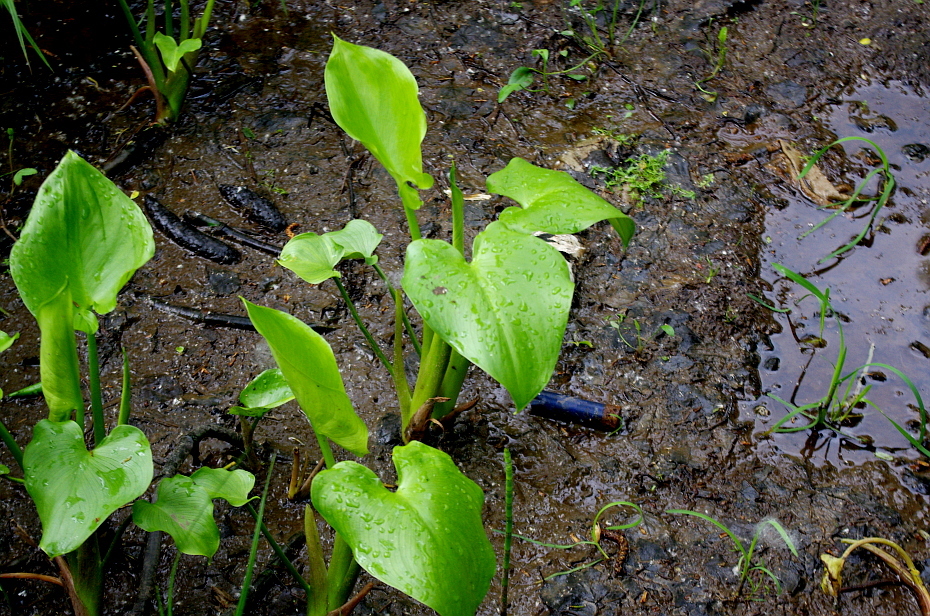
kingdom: Plantae
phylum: Tracheophyta
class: Liliopsida
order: Alismatales
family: Araceae
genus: Calla
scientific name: Calla palustris
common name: Bog arum
